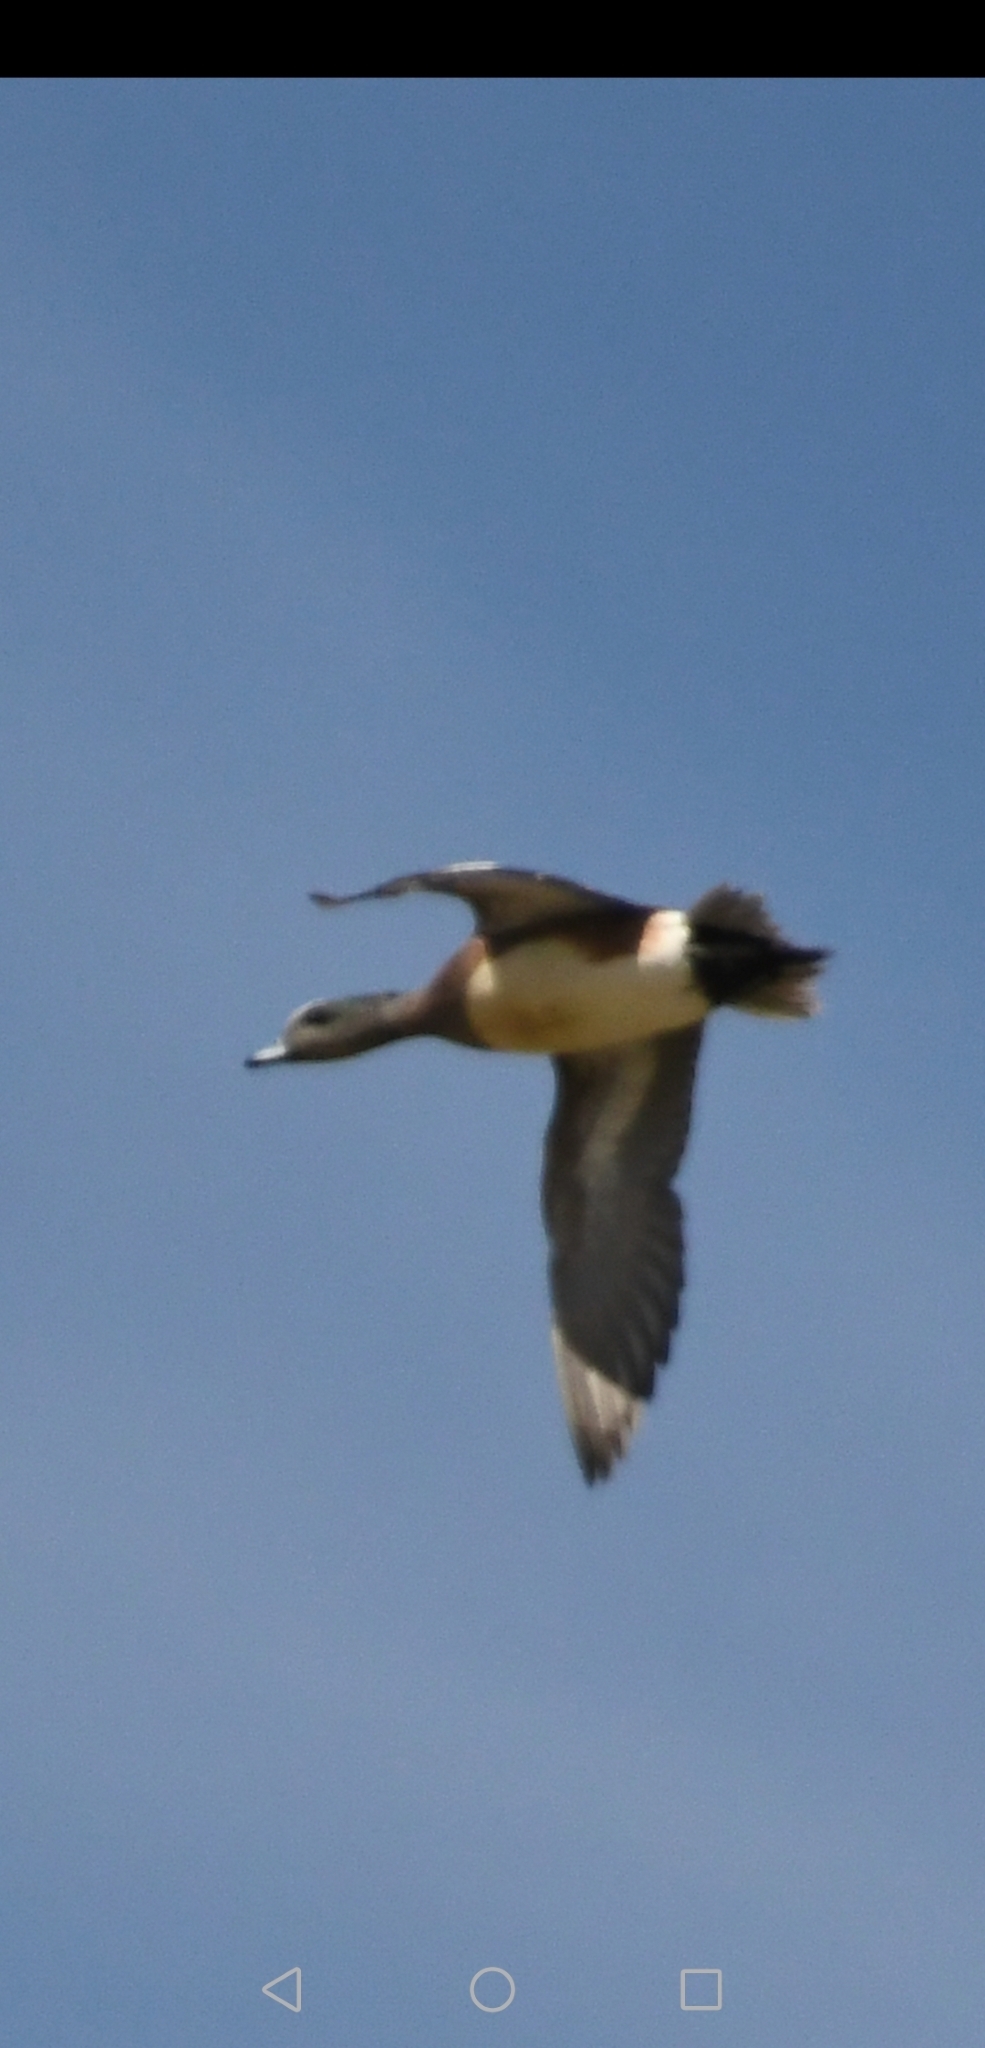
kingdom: Animalia
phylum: Chordata
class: Aves
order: Anseriformes
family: Anatidae
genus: Mareca
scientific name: Mareca americana
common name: American wigeon
